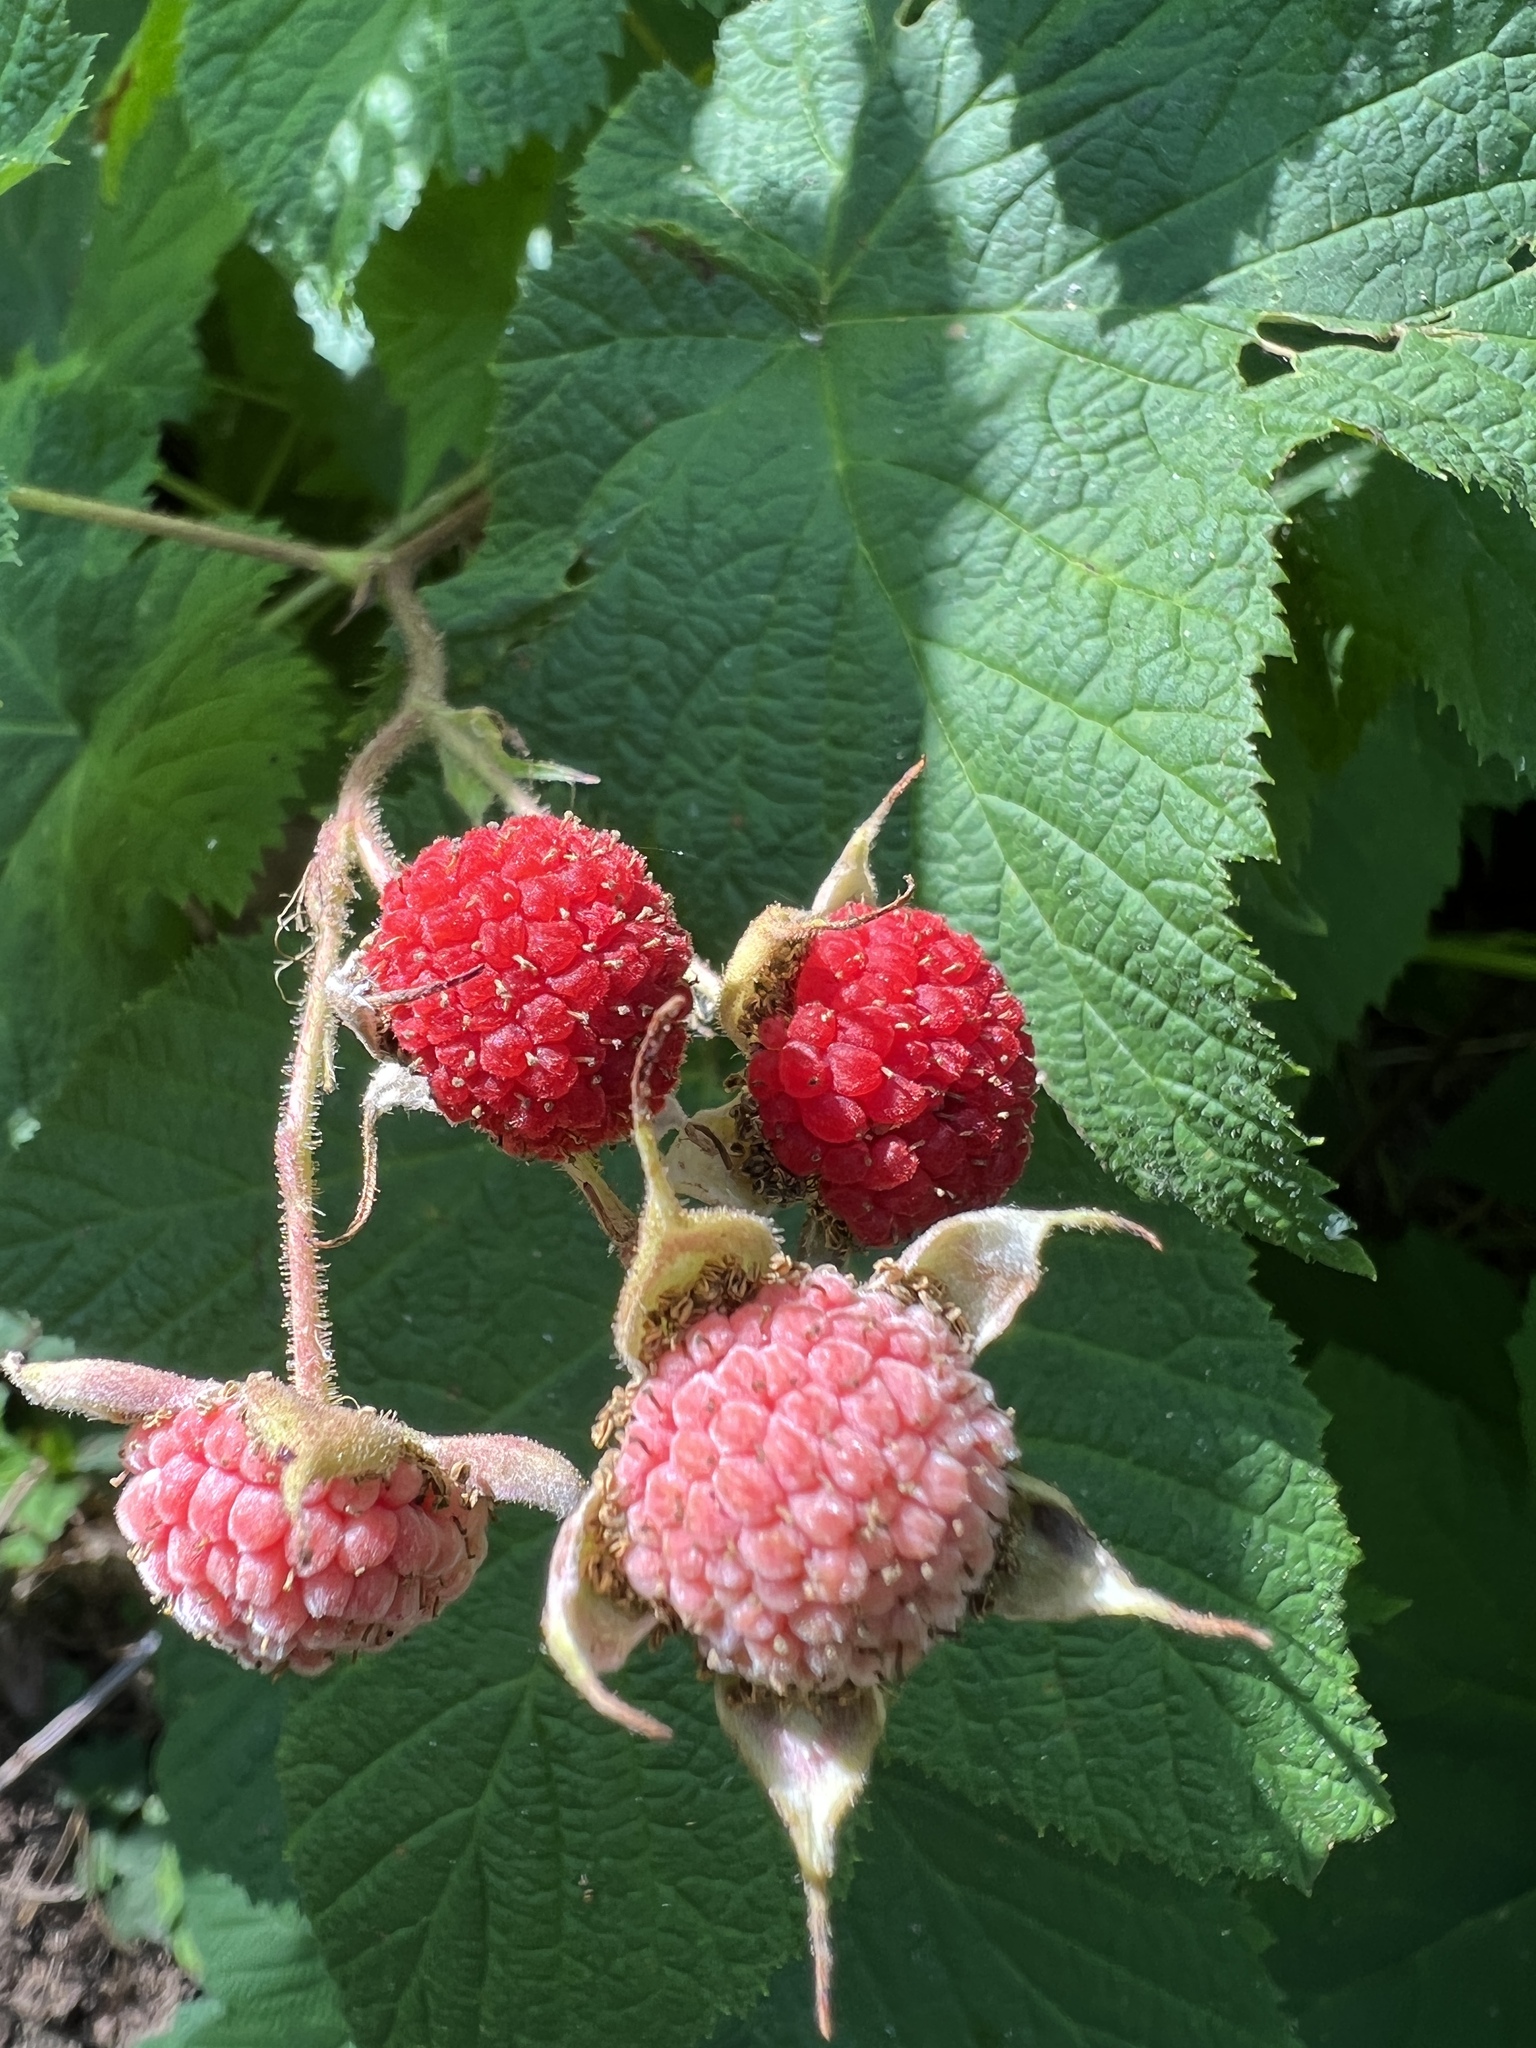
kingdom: Plantae
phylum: Tracheophyta
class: Magnoliopsida
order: Rosales
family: Rosaceae
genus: Rubus
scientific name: Rubus parviflorus
